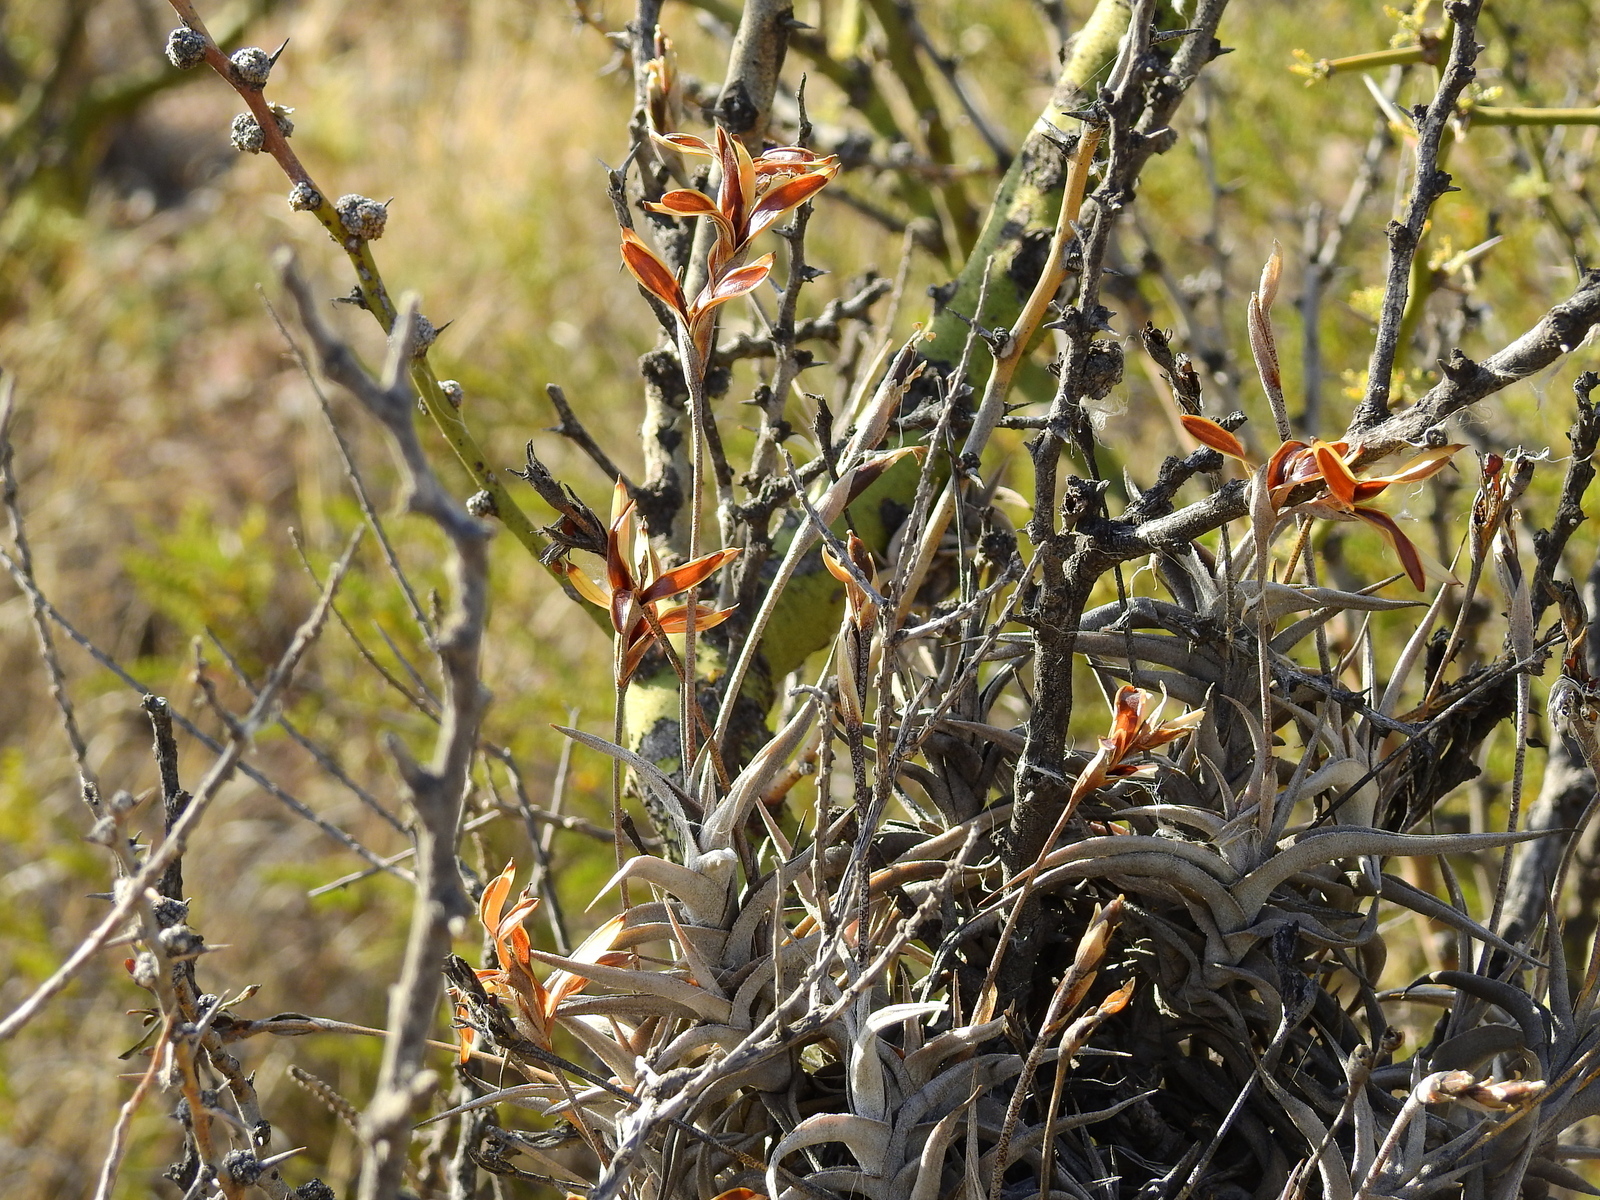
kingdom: Plantae
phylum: Tracheophyta
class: Liliopsida
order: Poales
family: Bromeliaceae
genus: Tillandsia
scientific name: Tillandsia gilliesii
